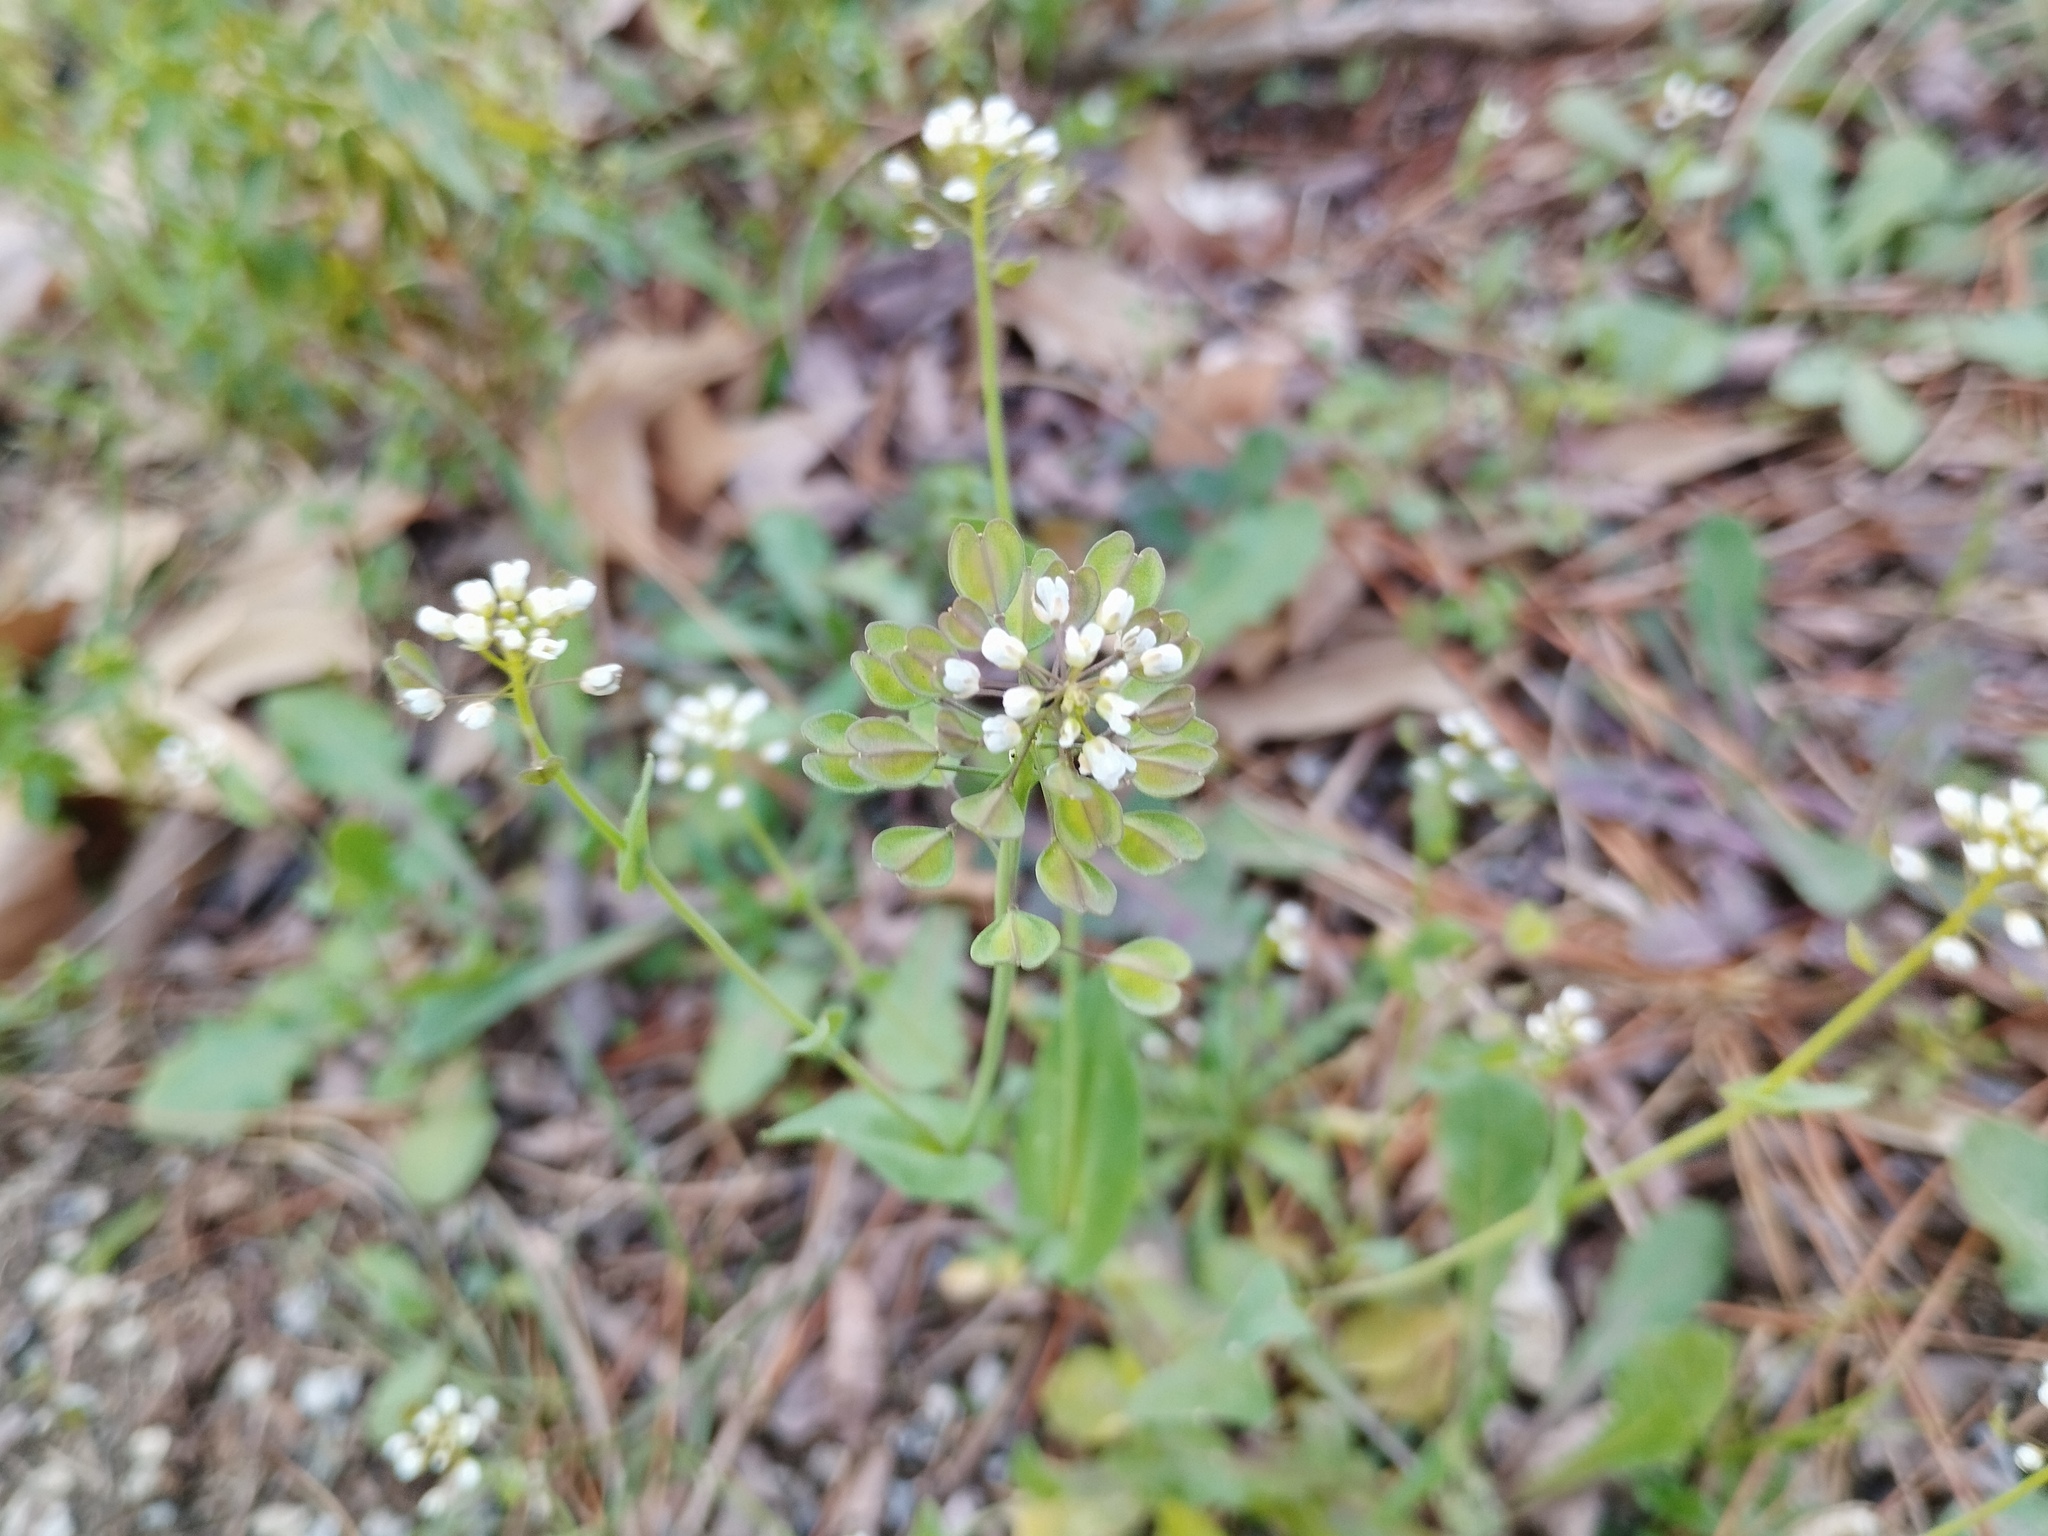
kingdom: Plantae
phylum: Tracheophyta
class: Magnoliopsida
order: Brassicales
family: Brassicaceae
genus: Noccaea
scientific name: Noccaea perfoliata
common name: Perfoliate pennycress
